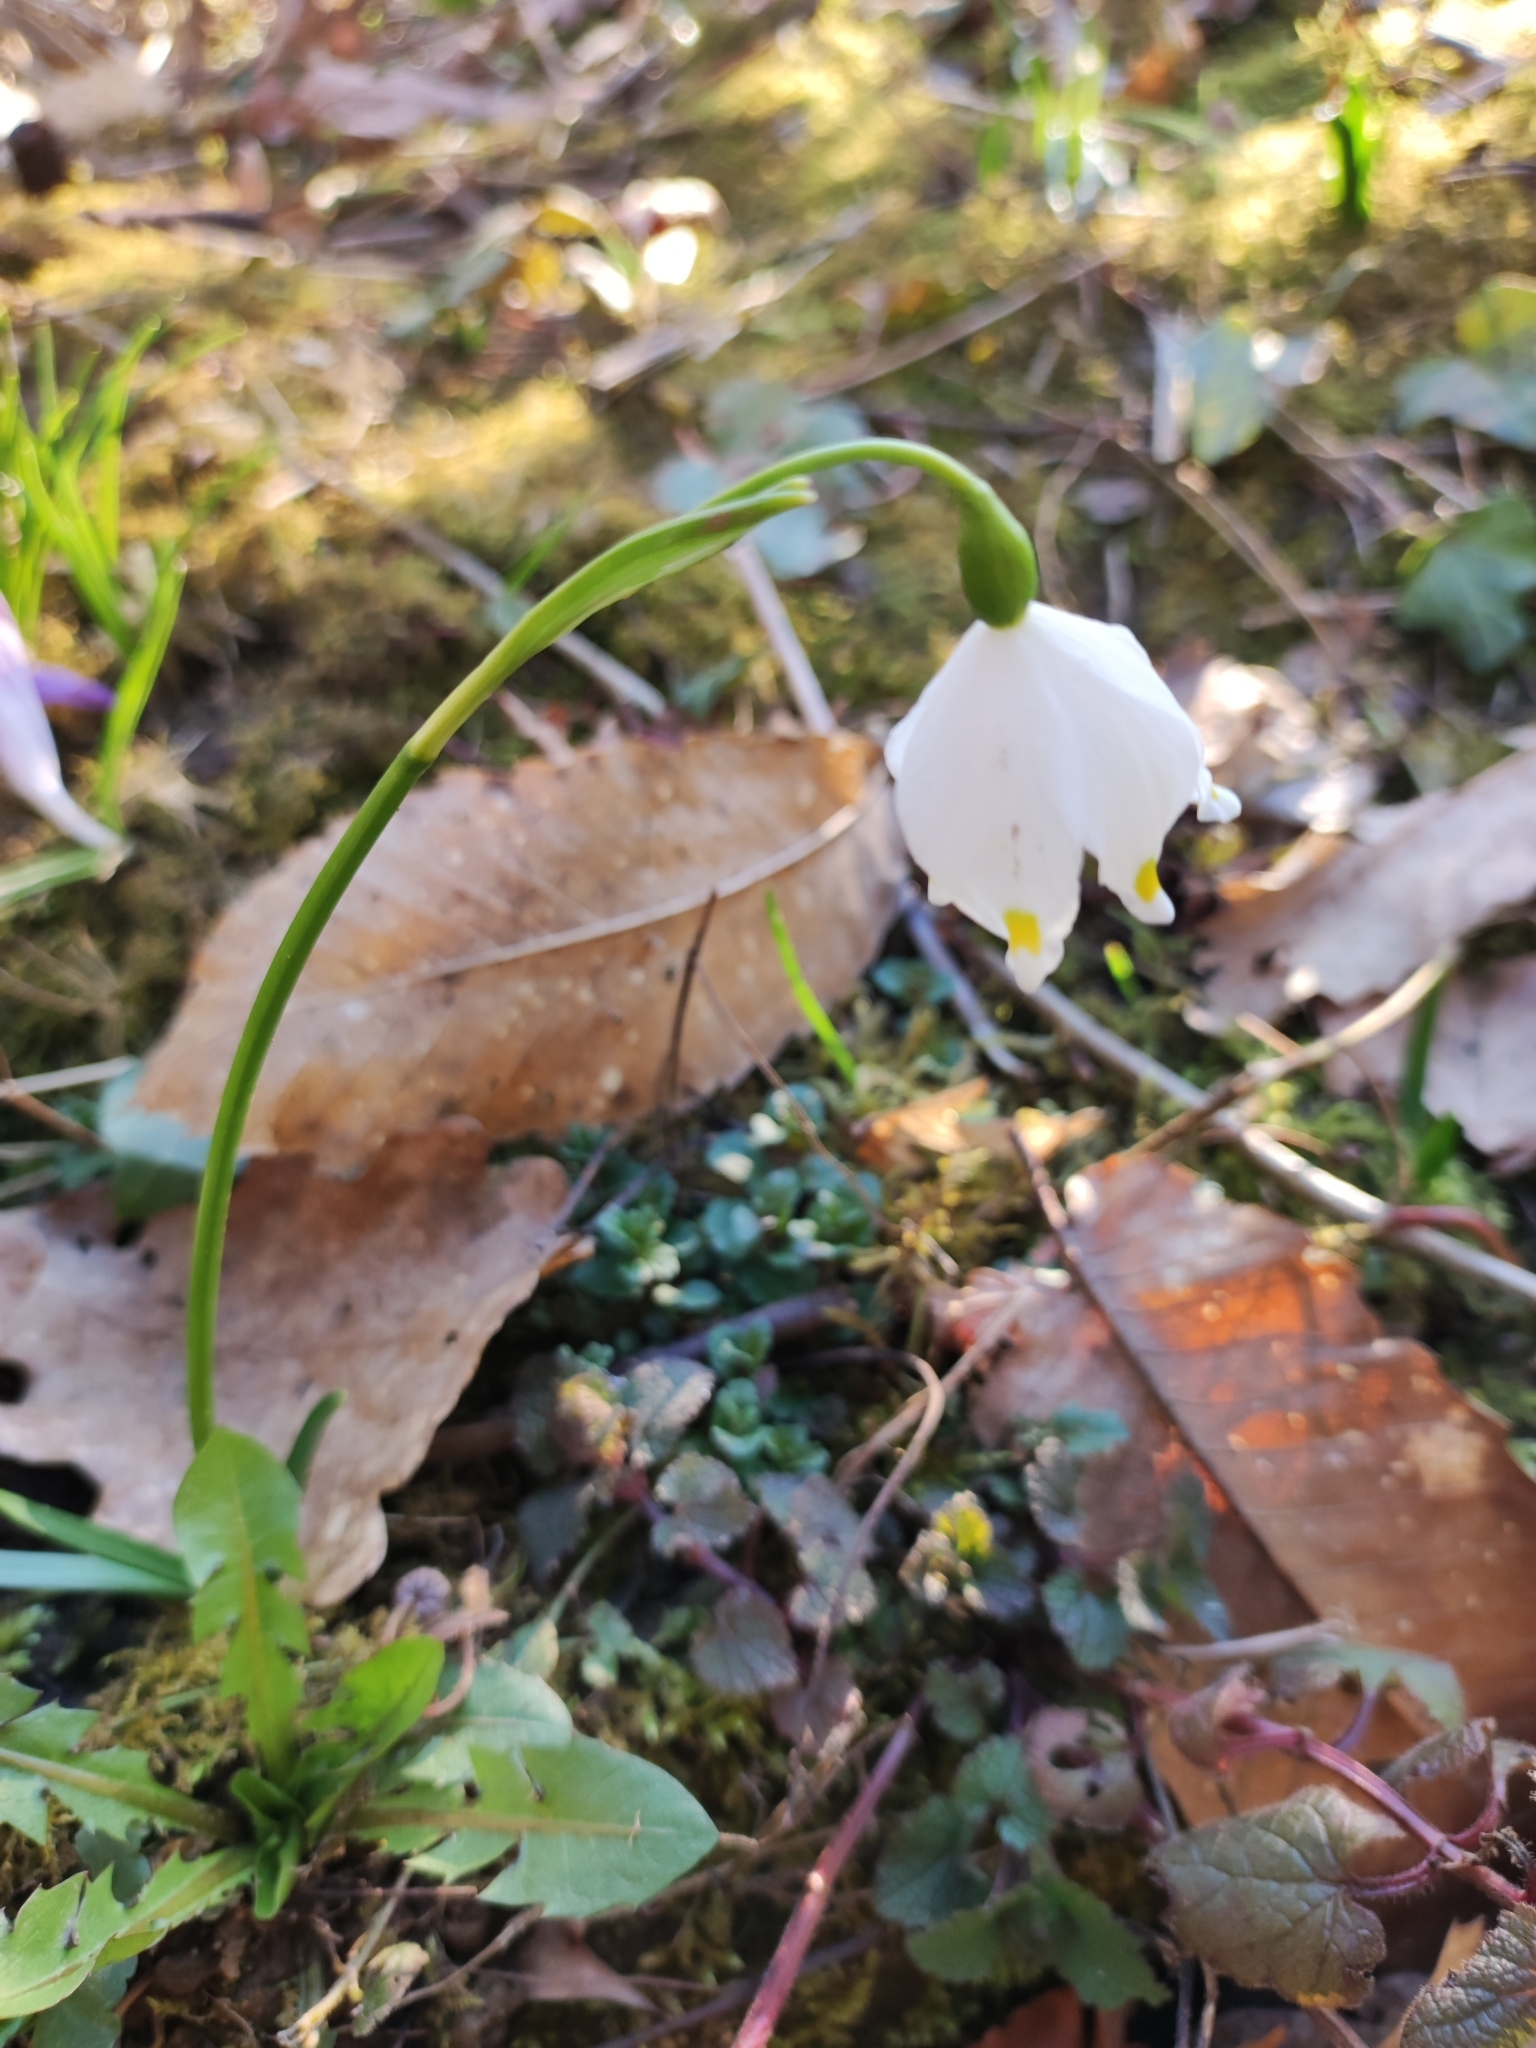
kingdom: Plantae
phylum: Tracheophyta
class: Liliopsida
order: Asparagales
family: Amaryllidaceae
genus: Leucojum
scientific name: Leucojum vernum
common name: Spring snowflake
